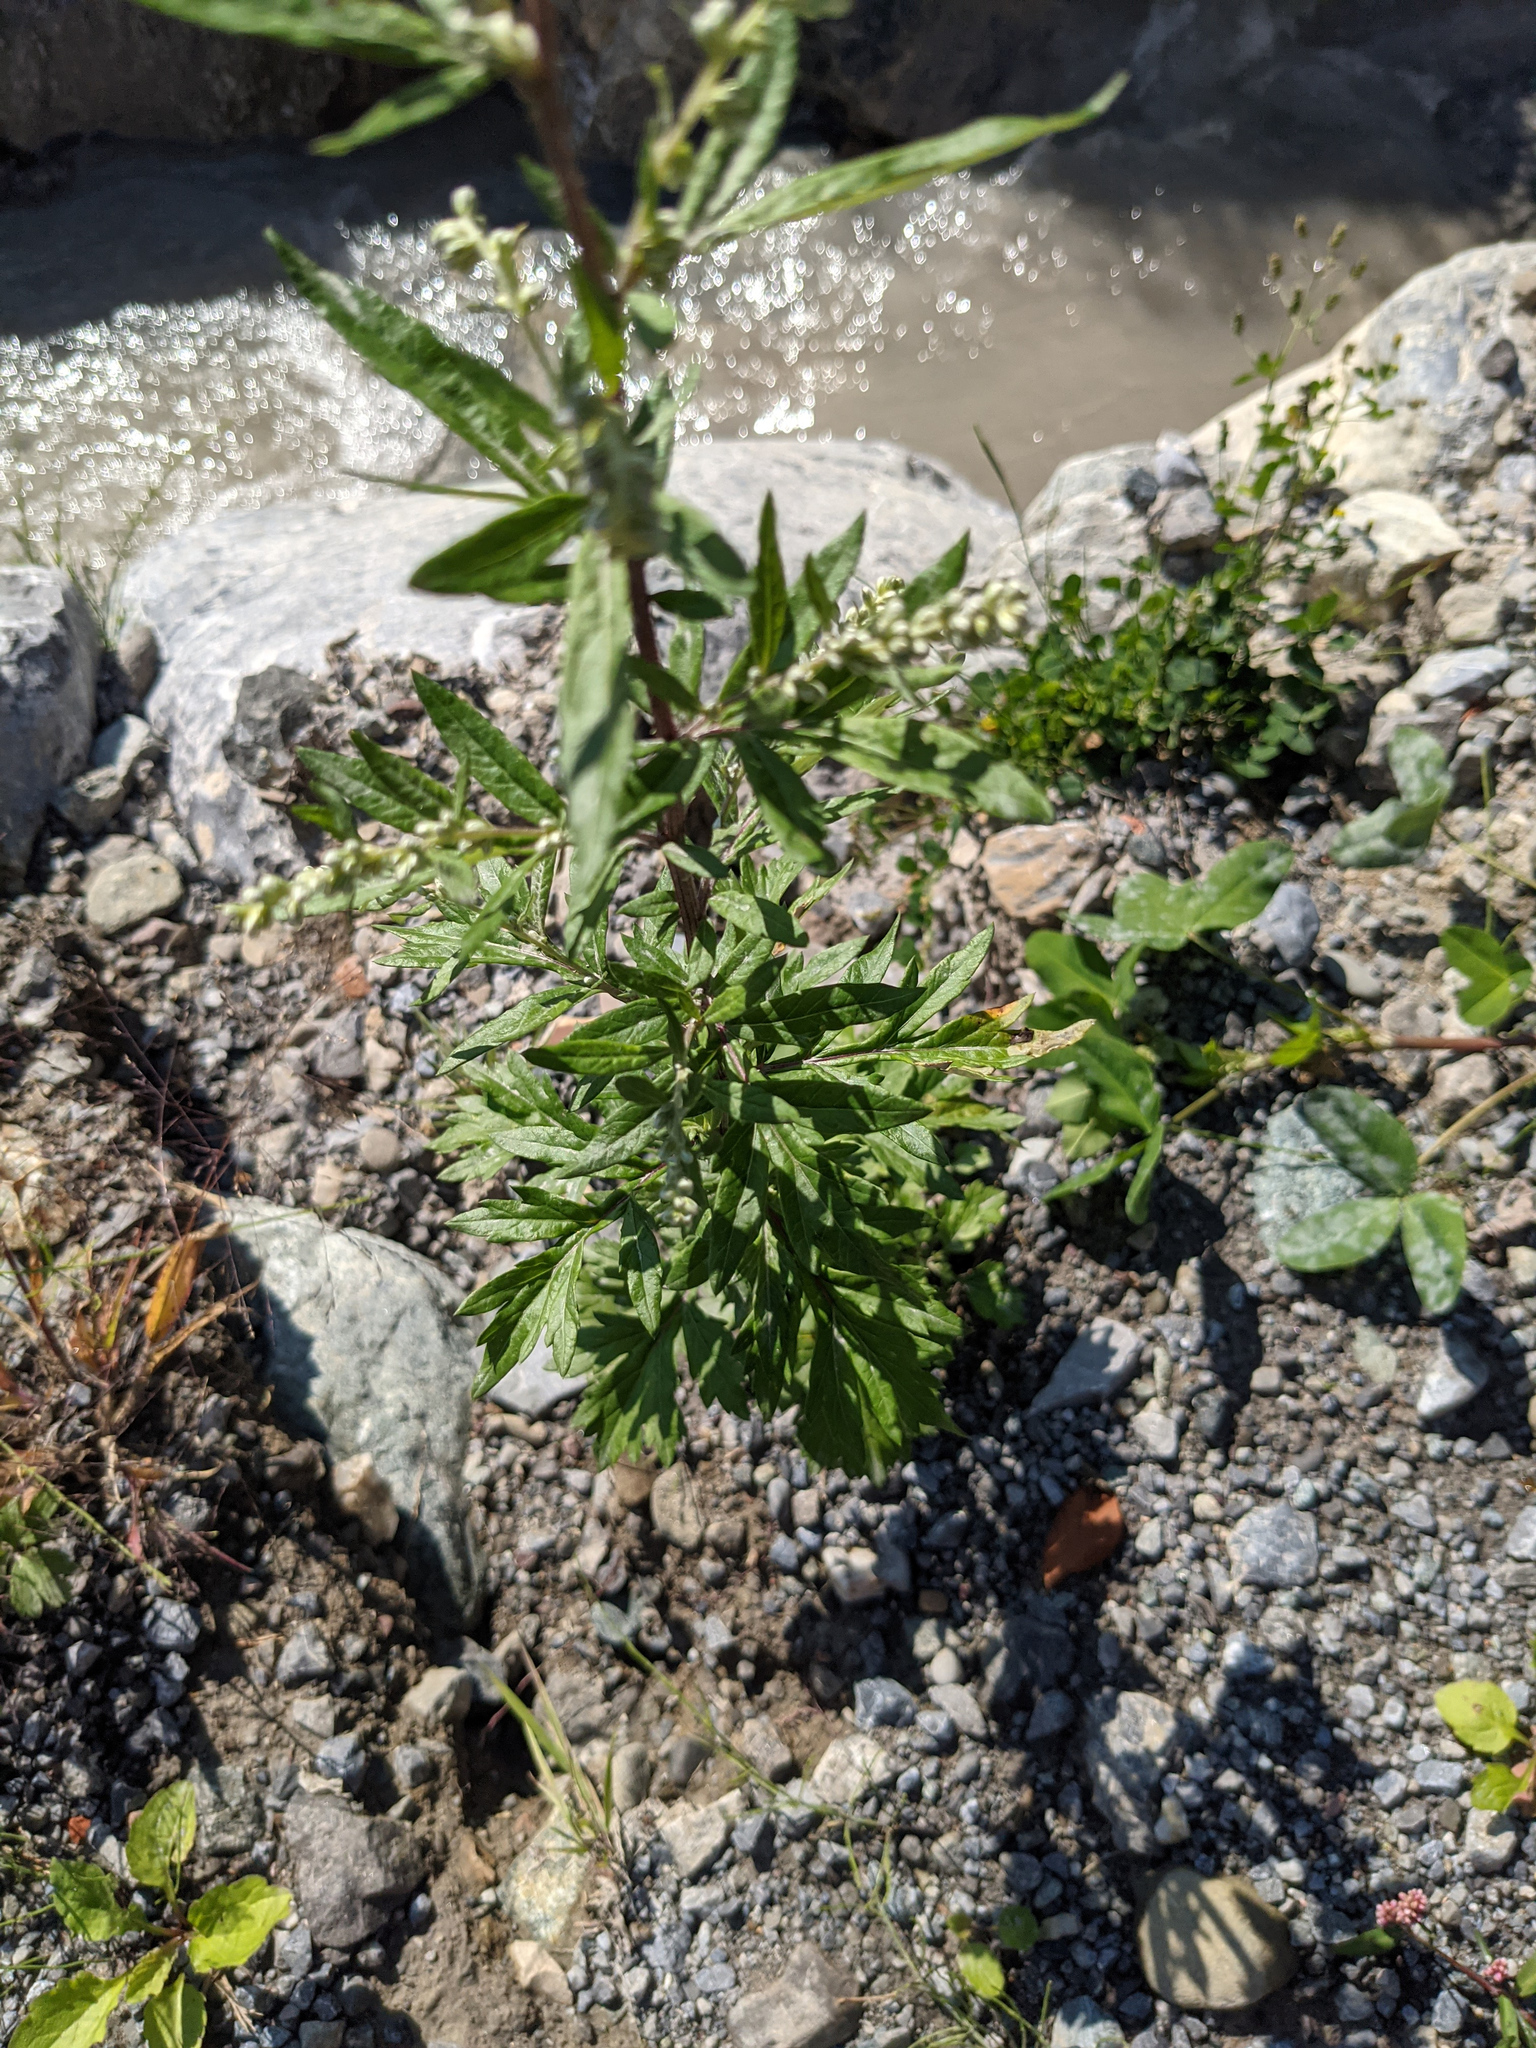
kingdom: Plantae
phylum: Tracheophyta
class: Magnoliopsida
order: Asterales
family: Asteraceae
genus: Artemisia
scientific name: Artemisia vulgaris
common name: Mugwort
